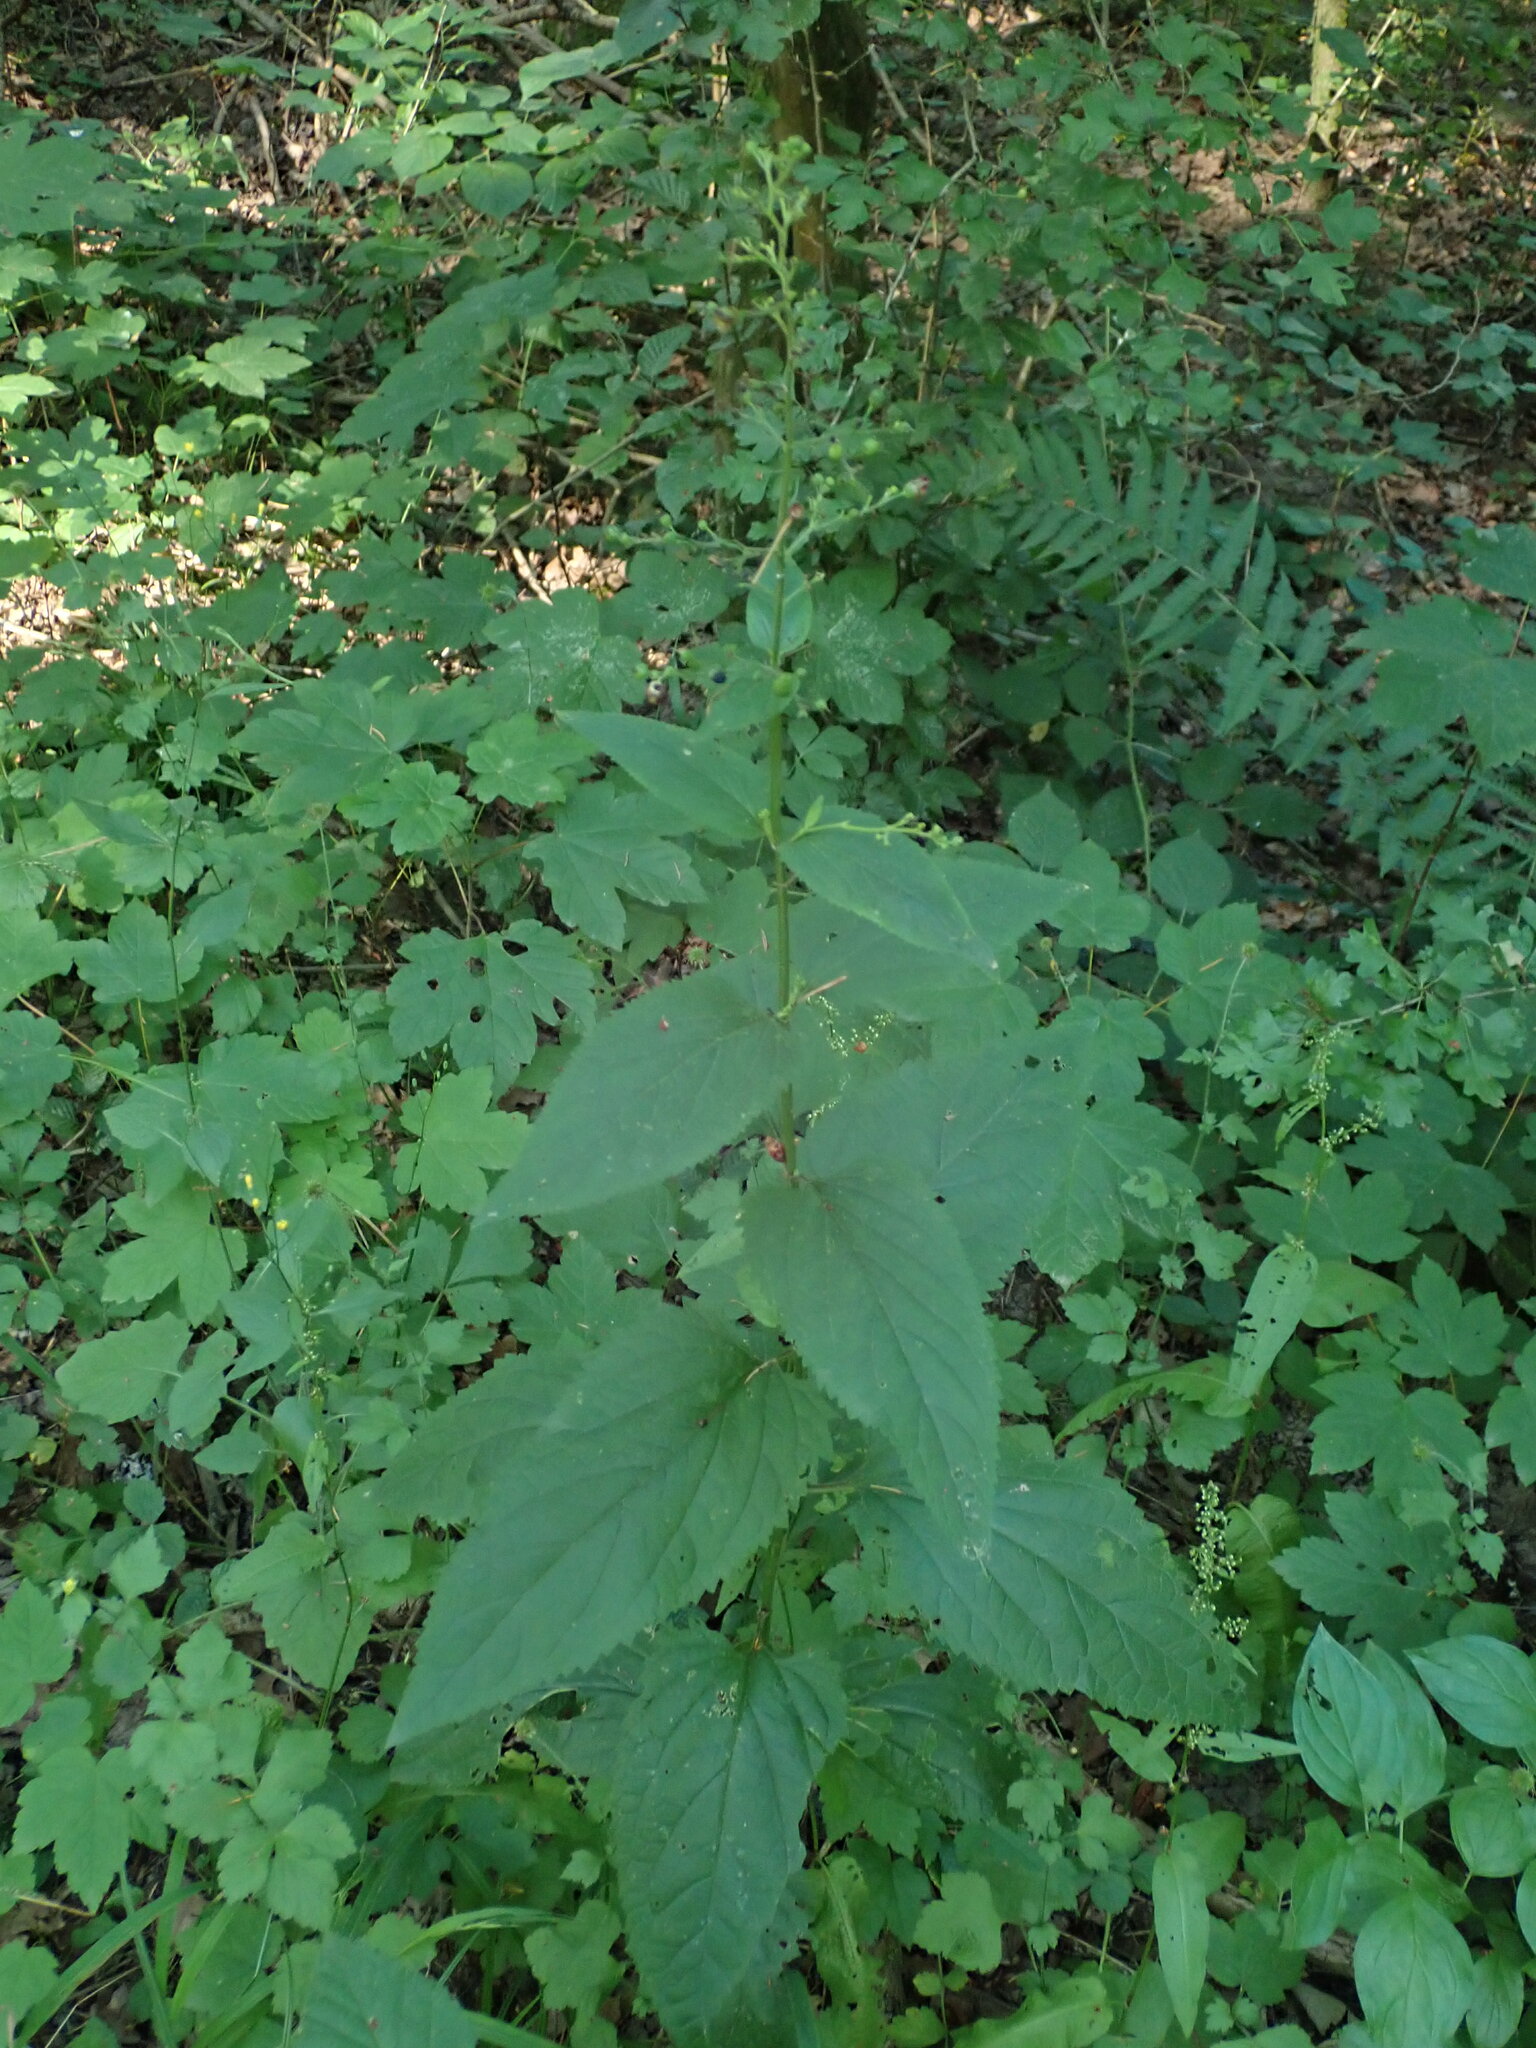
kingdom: Plantae
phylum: Tracheophyta
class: Magnoliopsida
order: Lamiales
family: Scrophulariaceae
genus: Scrophularia
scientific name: Scrophularia nodosa
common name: Common figwort
